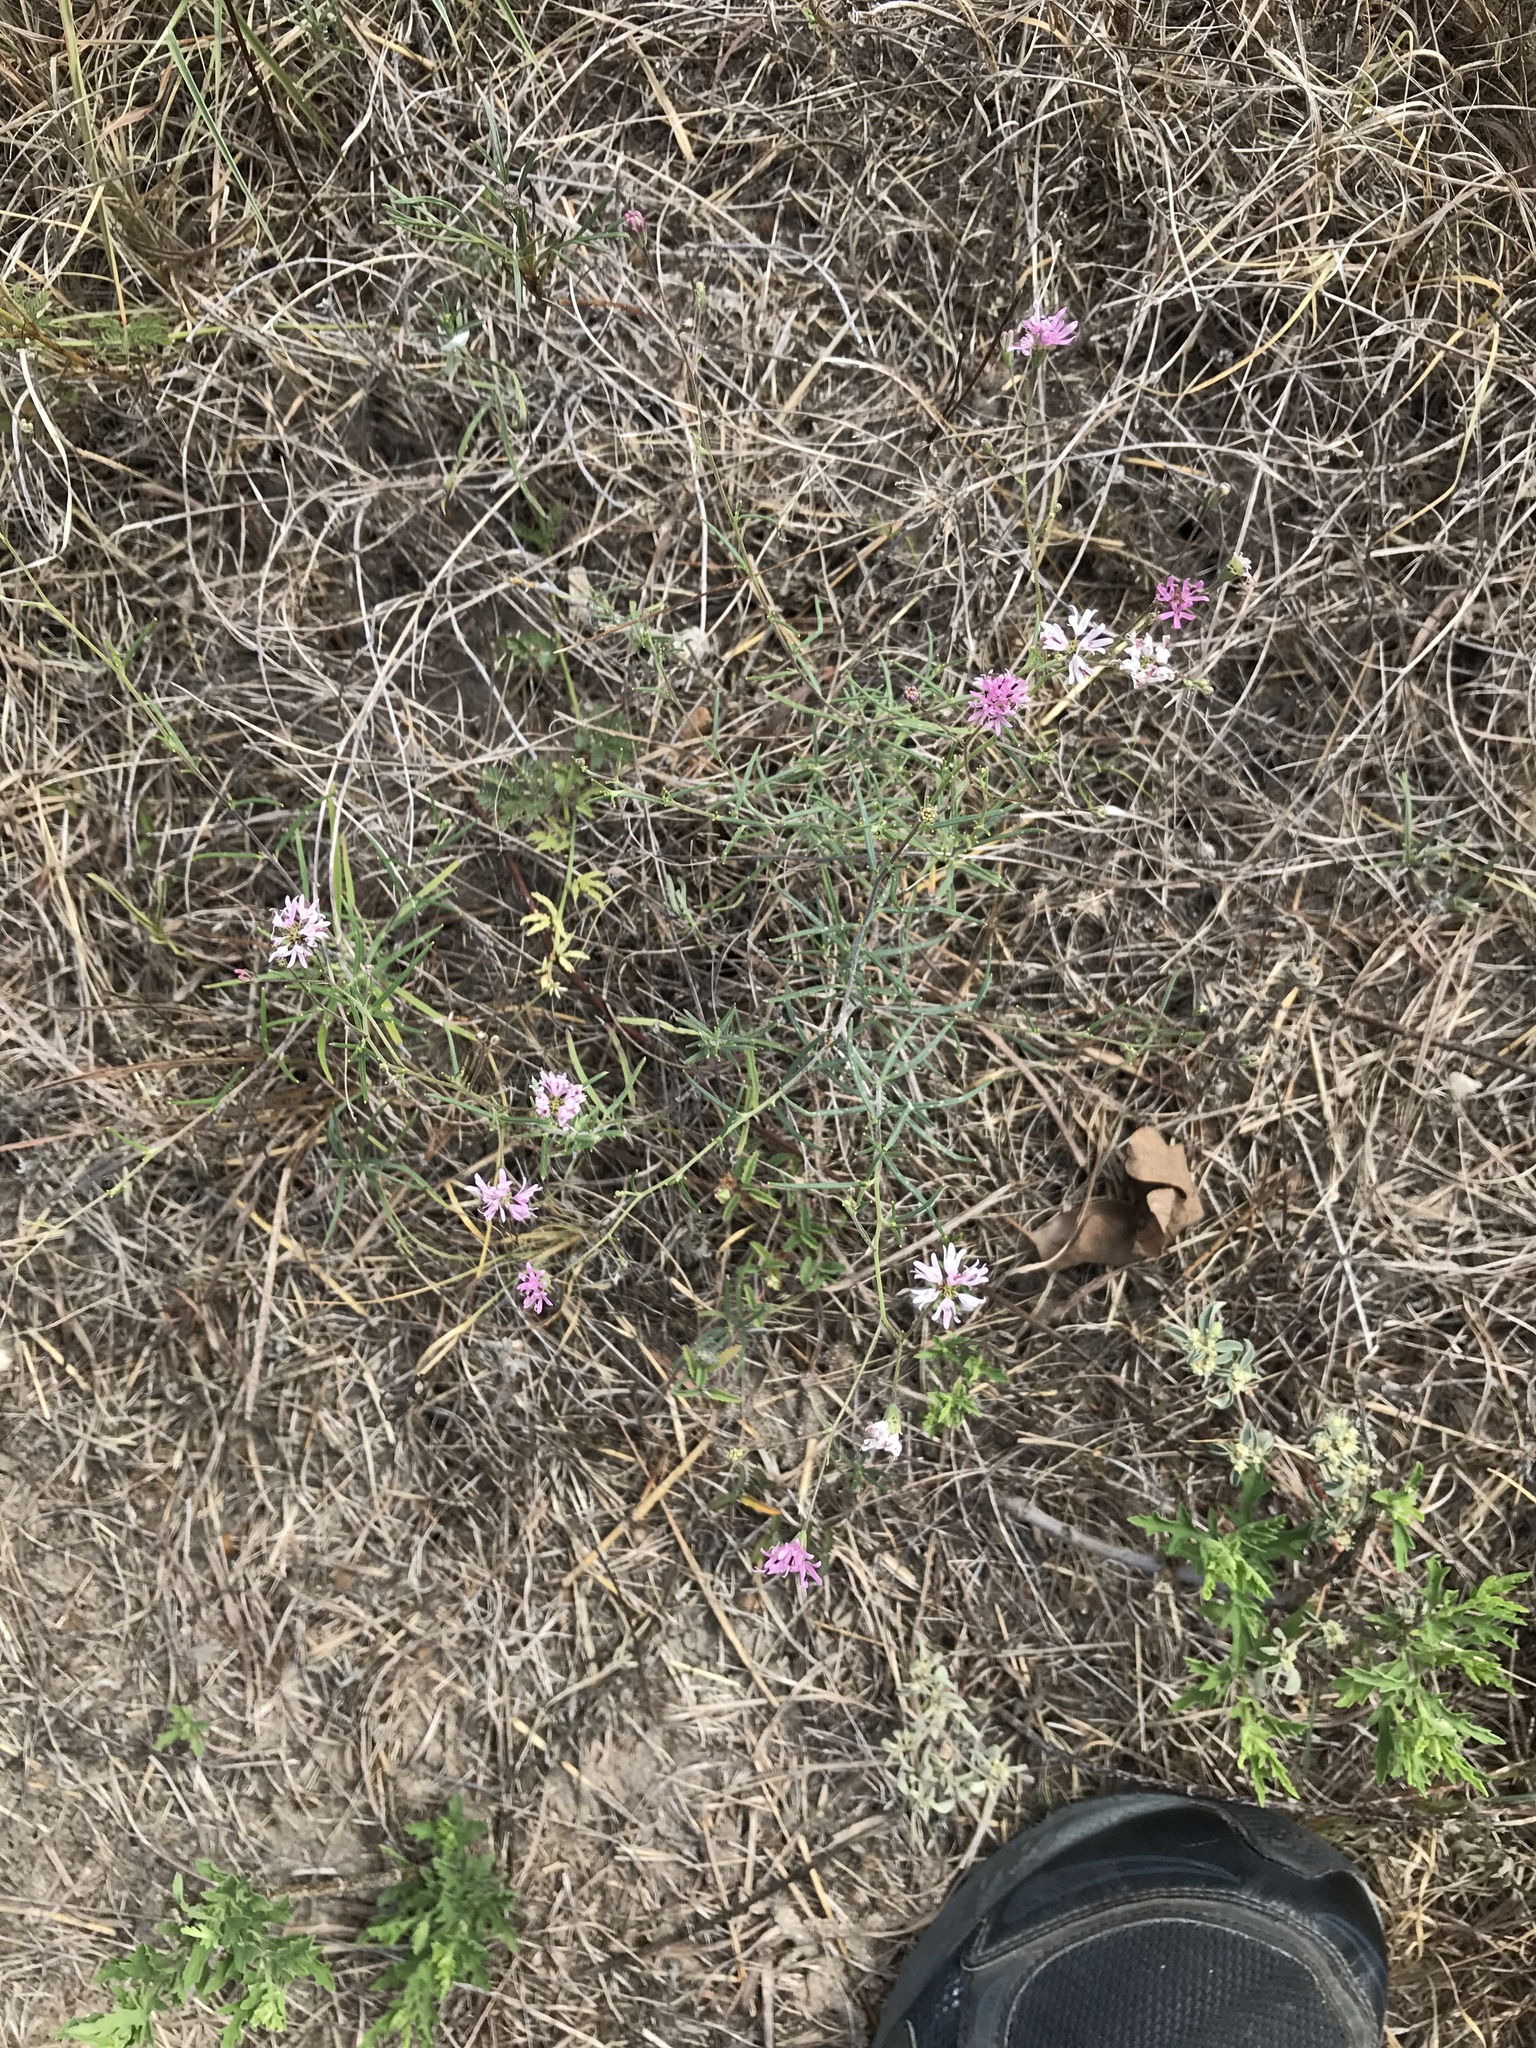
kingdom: Plantae
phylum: Tracheophyta
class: Magnoliopsida
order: Asterales
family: Asteraceae
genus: Palafoxia
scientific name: Palafoxia callosa
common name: Small palafox
